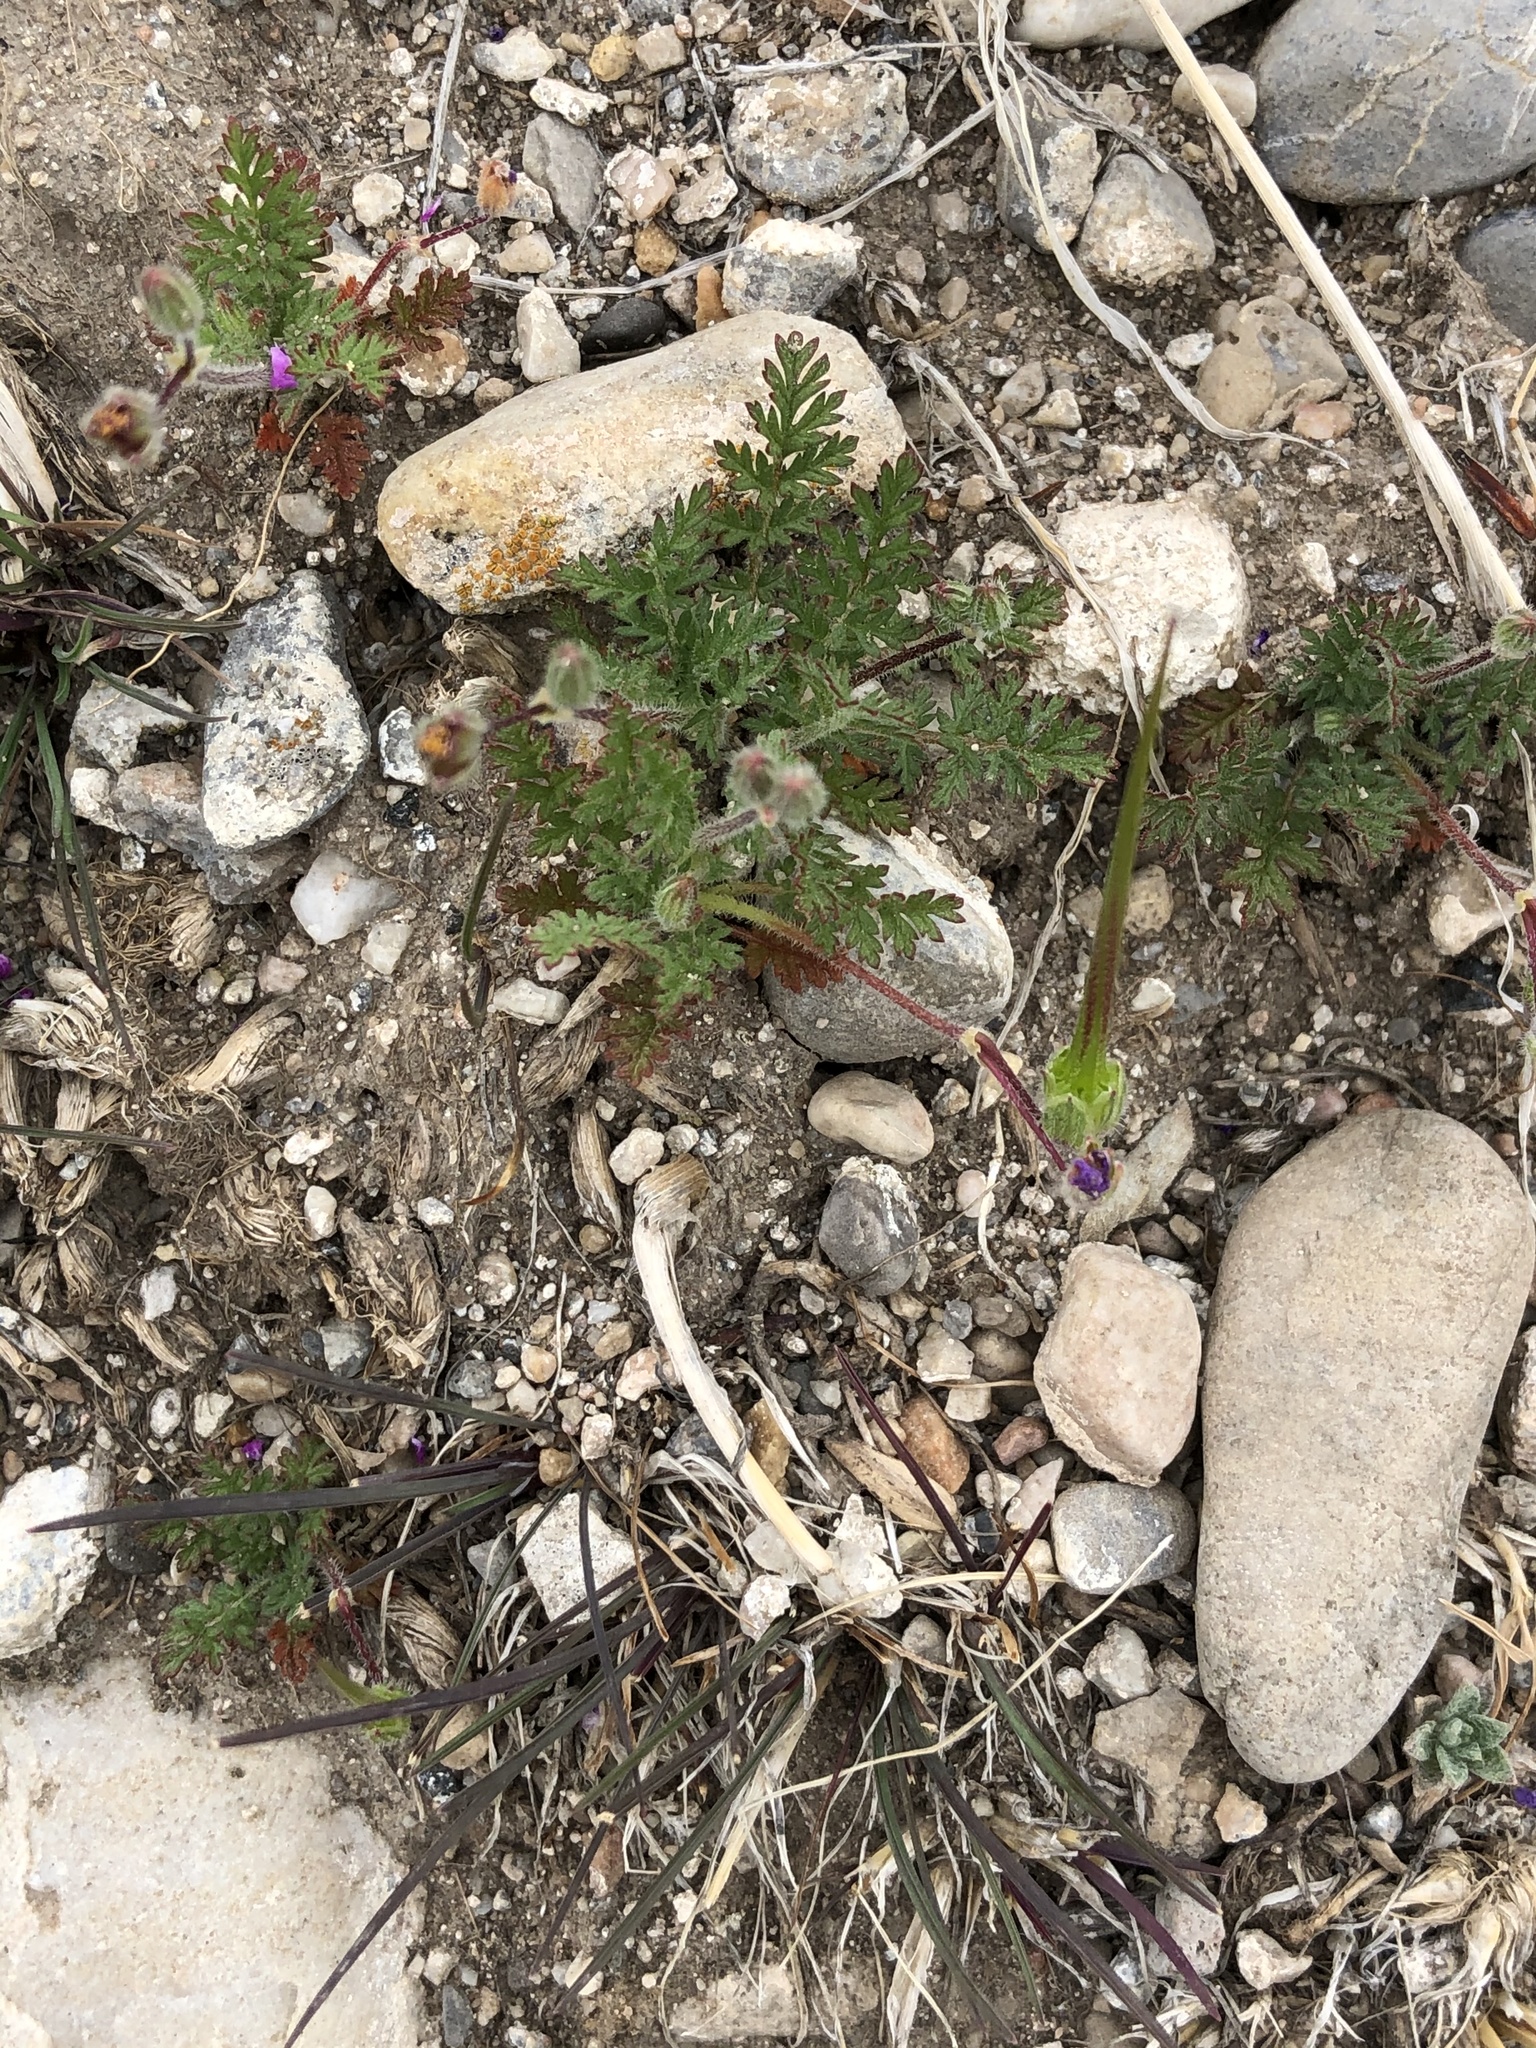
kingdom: Plantae
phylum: Tracheophyta
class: Magnoliopsida
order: Geraniales
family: Geraniaceae
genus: Erodium
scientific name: Erodium cicutarium
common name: Common stork's-bill
